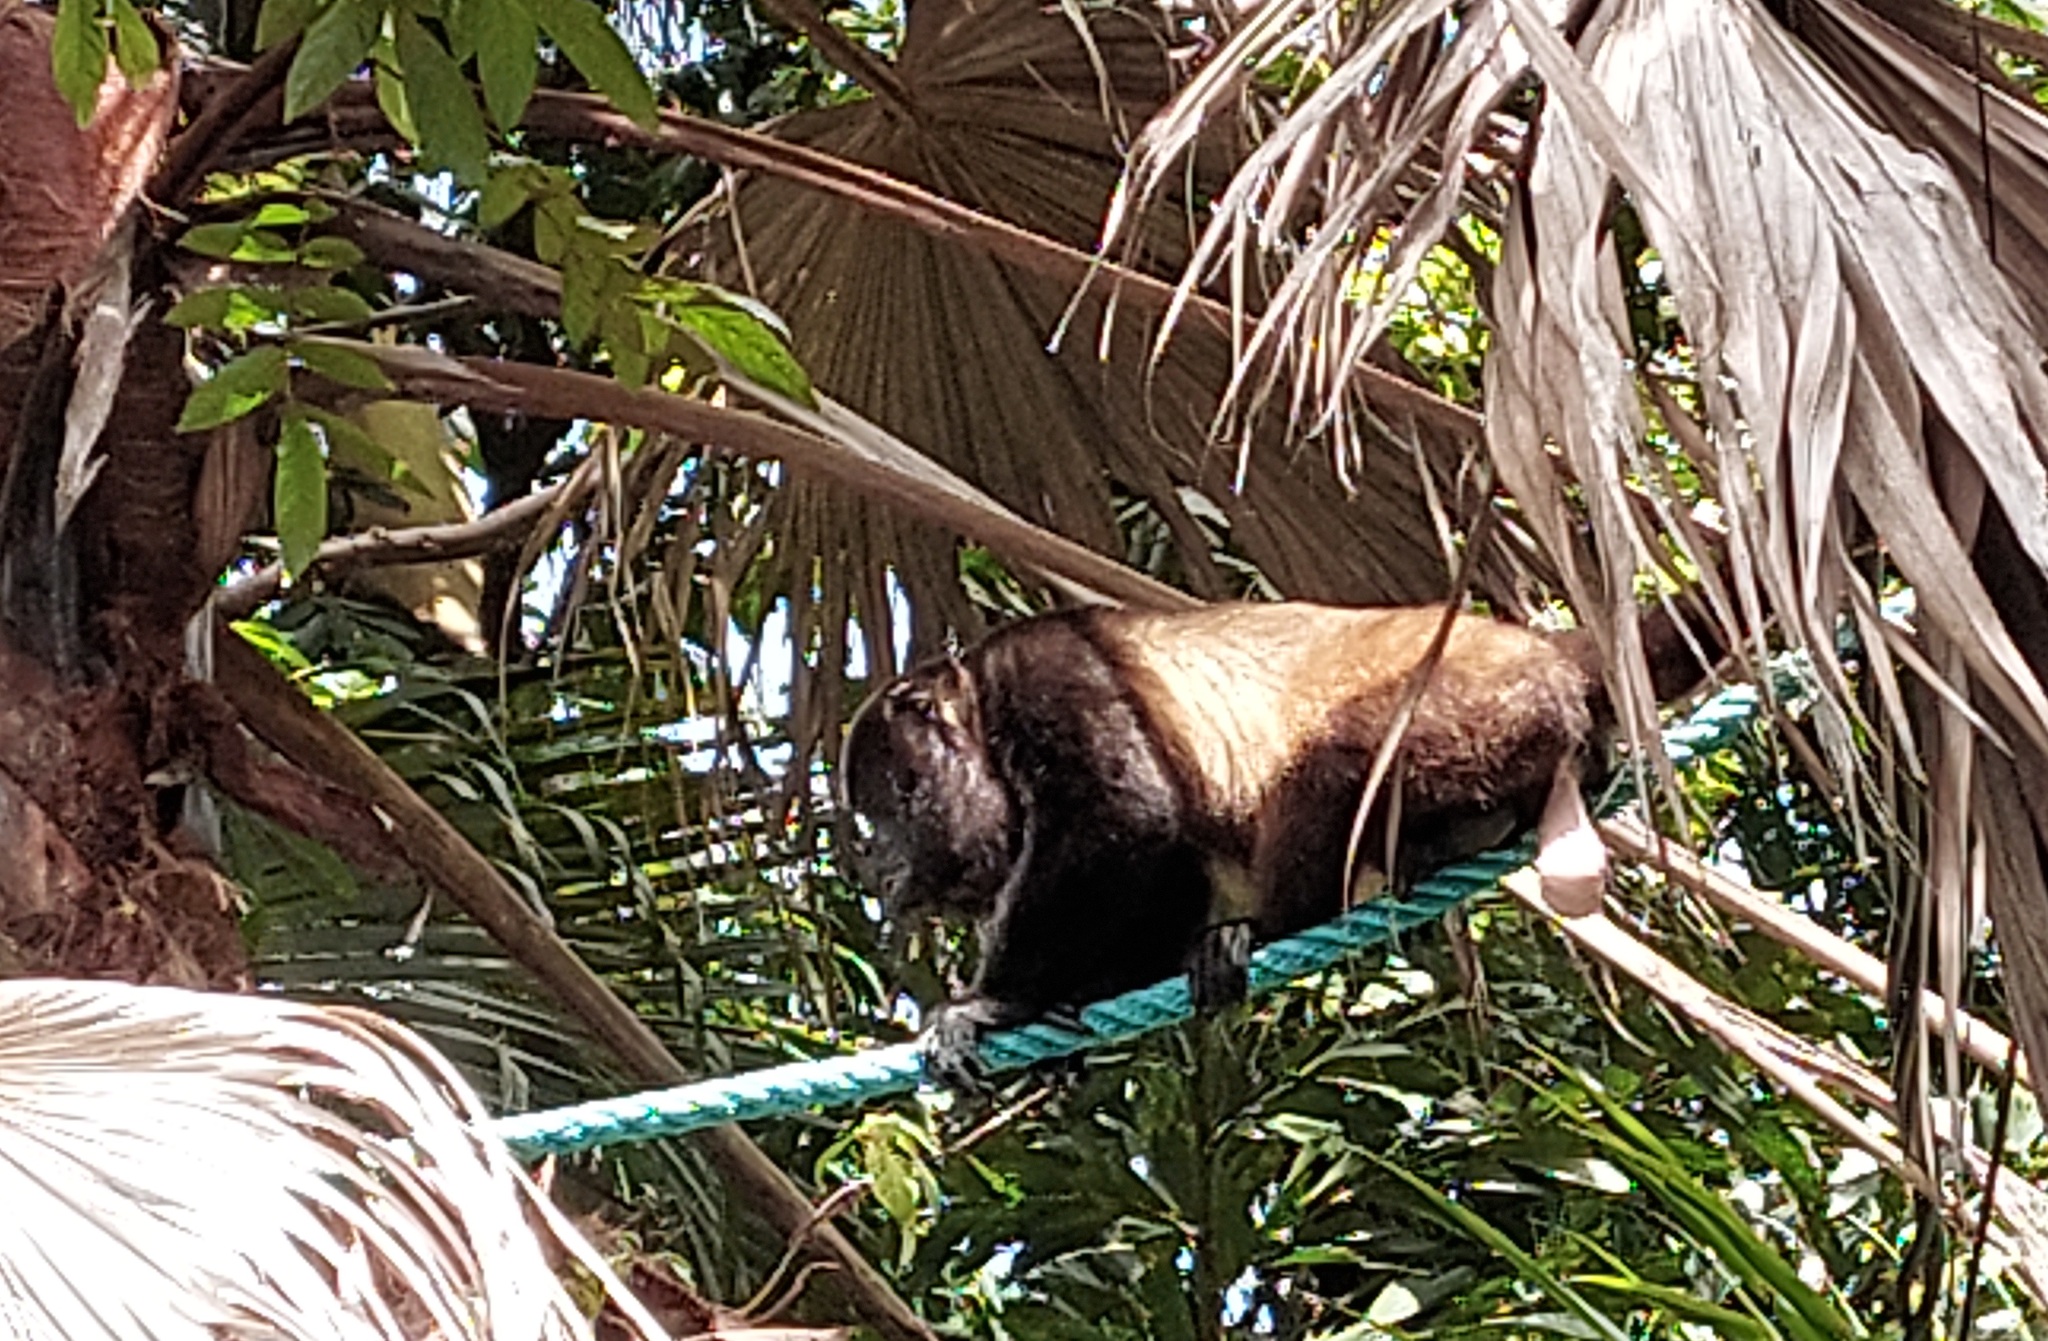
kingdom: Animalia
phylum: Chordata
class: Mammalia
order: Primates
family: Atelidae
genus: Alouatta
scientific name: Alouatta palliata
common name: Mantled howler
